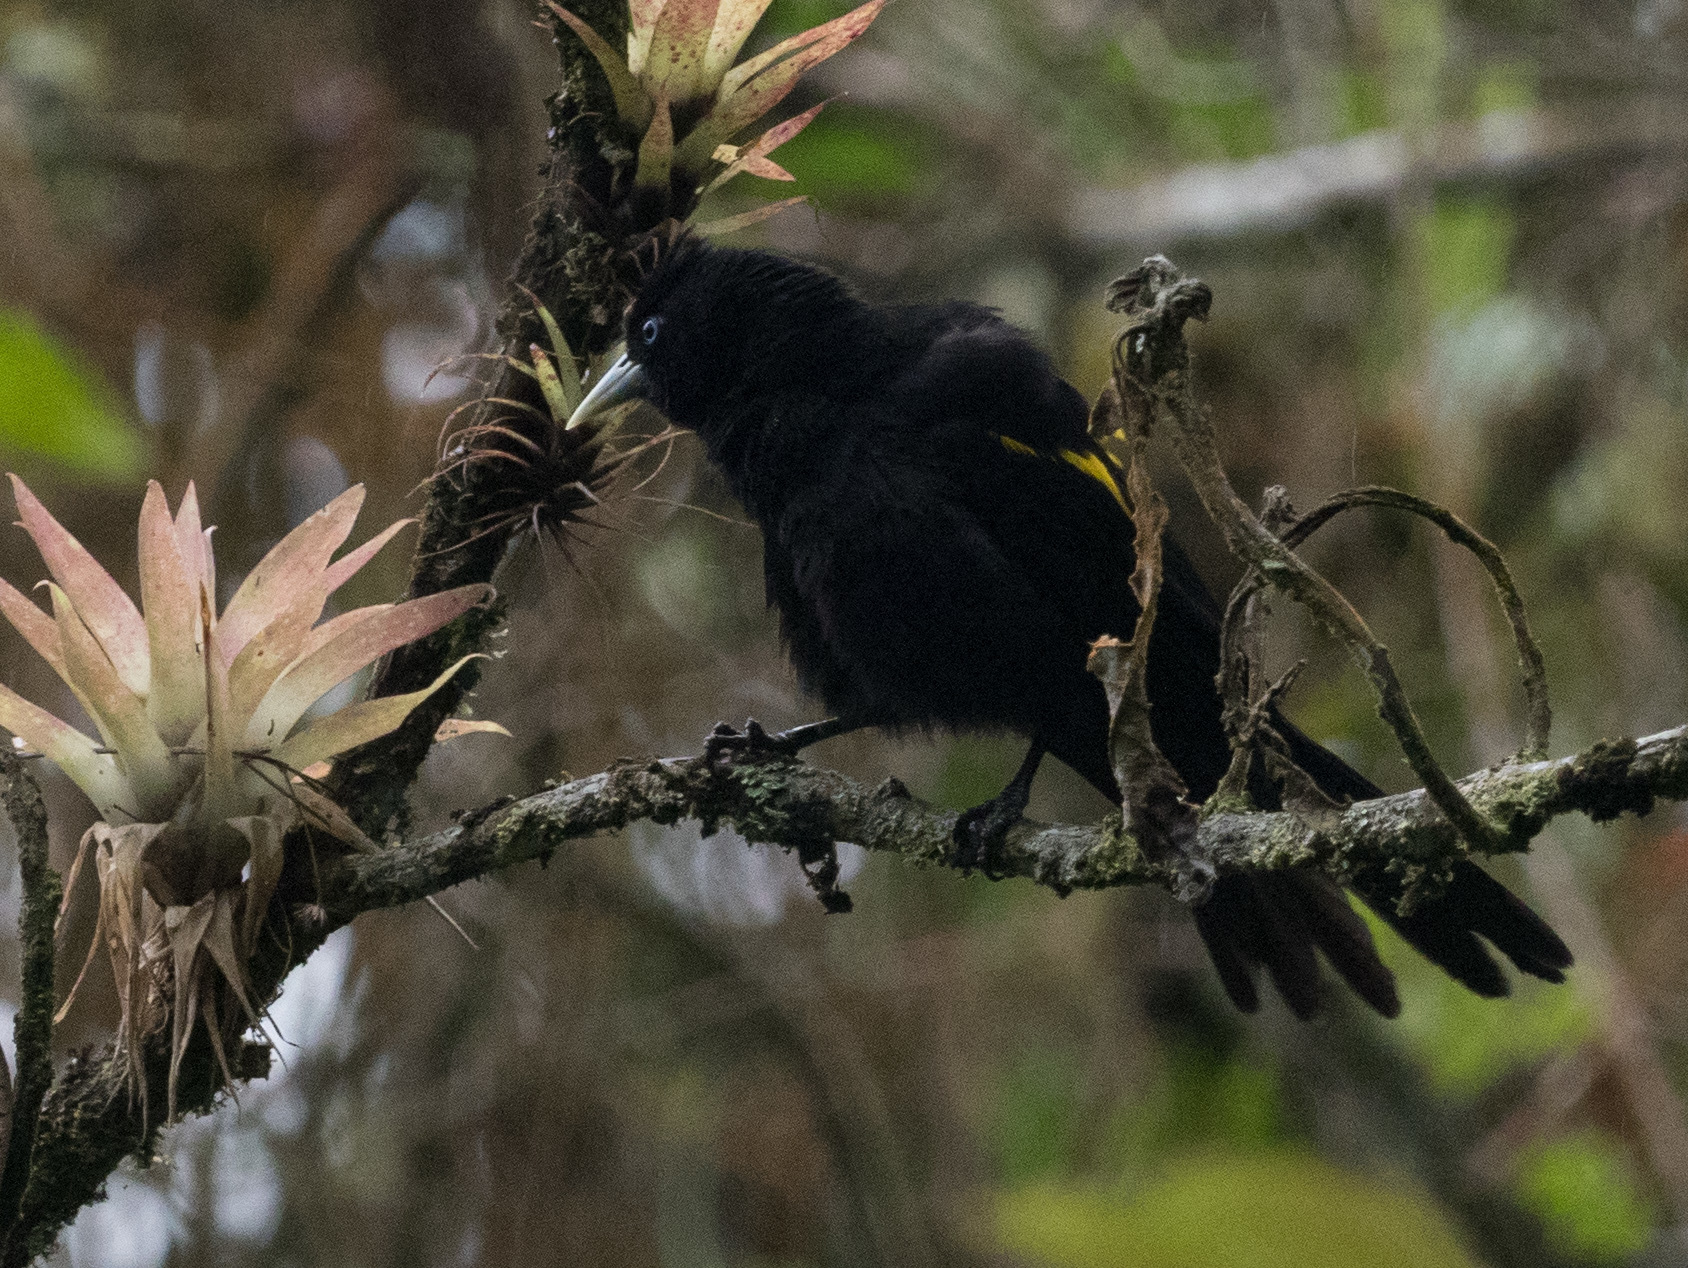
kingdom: Animalia
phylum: Chordata
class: Aves
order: Passeriformes
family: Icteridae
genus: Cacicus
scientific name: Cacicus chrysonotus
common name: Southern mountain cacique
